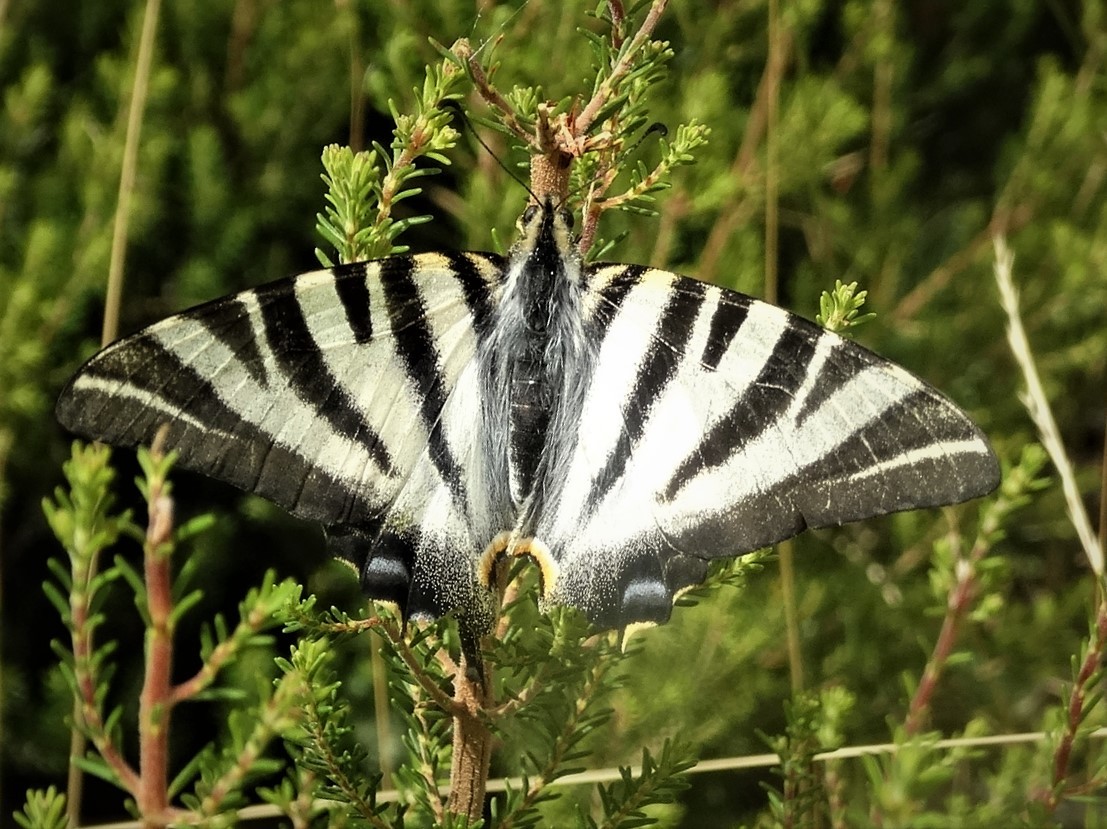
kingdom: Animalia
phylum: Arthropoda
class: Insecta
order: Lepidoptera
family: Papilionidae
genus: Iphiclides
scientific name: Iphiclides feisthamelii
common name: Iberian scarce swallowtail
